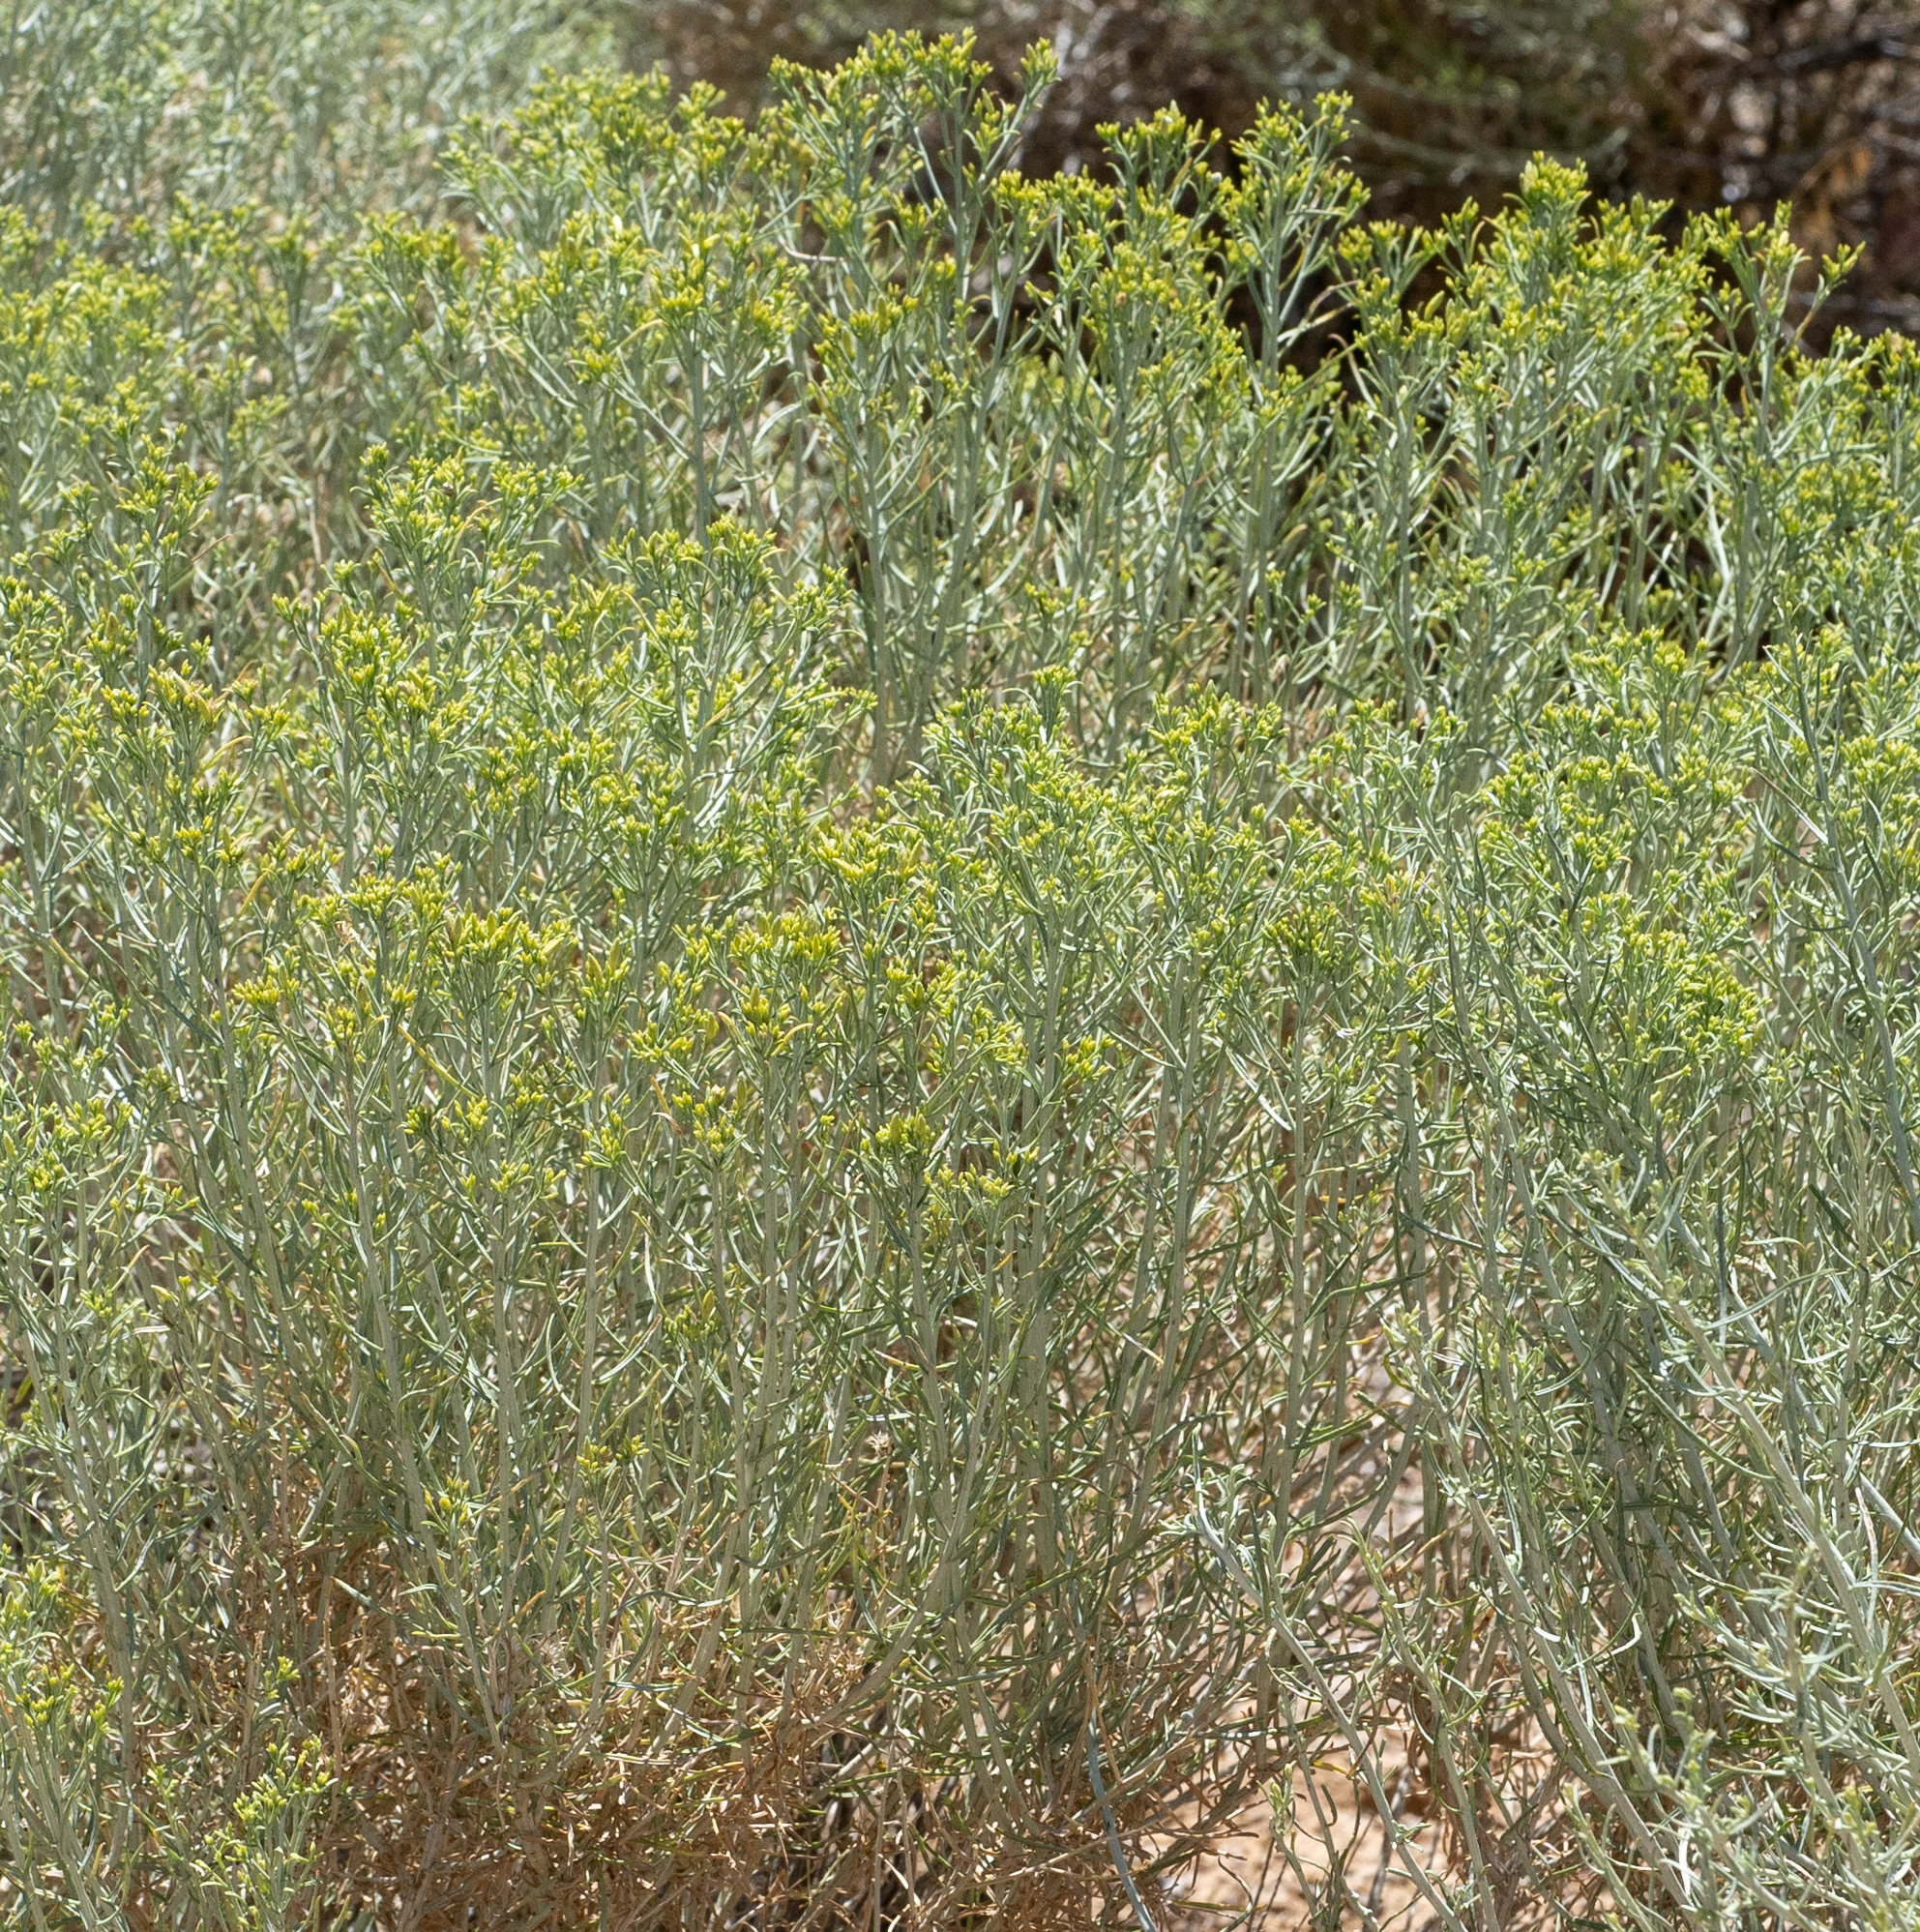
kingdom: Plantae
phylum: Tracheophyta
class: Magnoliopsida
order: Asterales
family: Asteraceae
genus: Ericameria
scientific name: Ericameria nauseosa
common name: Rubber rabbitbrush
